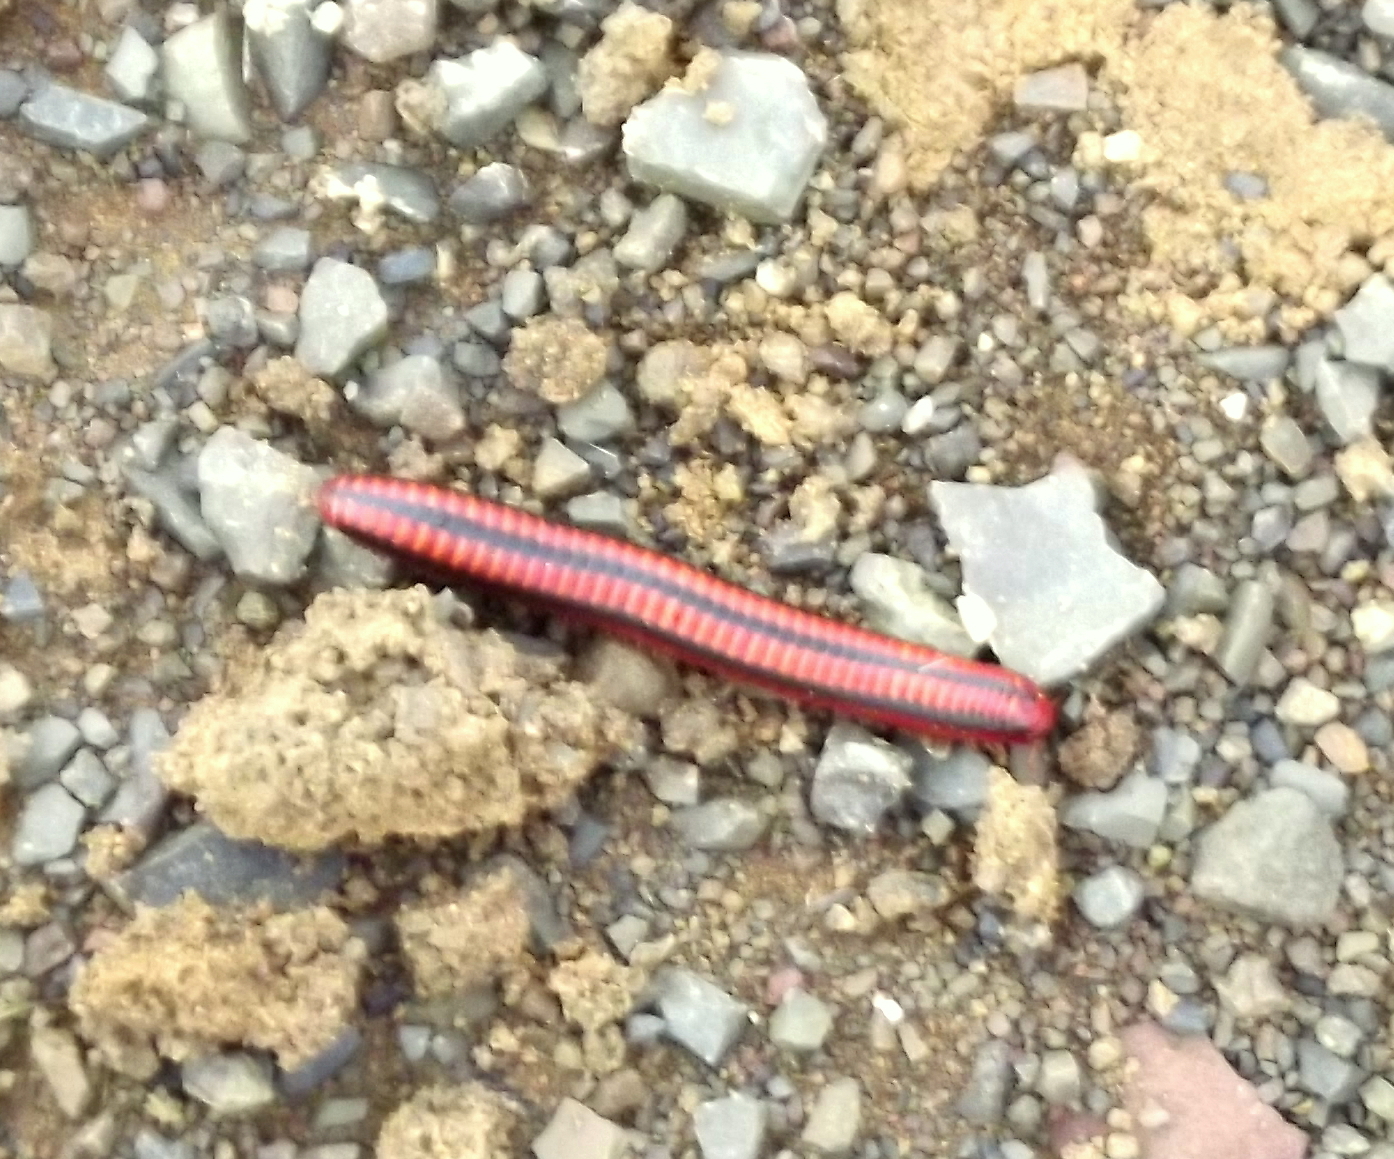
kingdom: Animalia
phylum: Arthropoda
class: Diplopoda
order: Spirobolida
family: Pachybolidae
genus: Centrobolus
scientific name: Centrobolus lugubris
